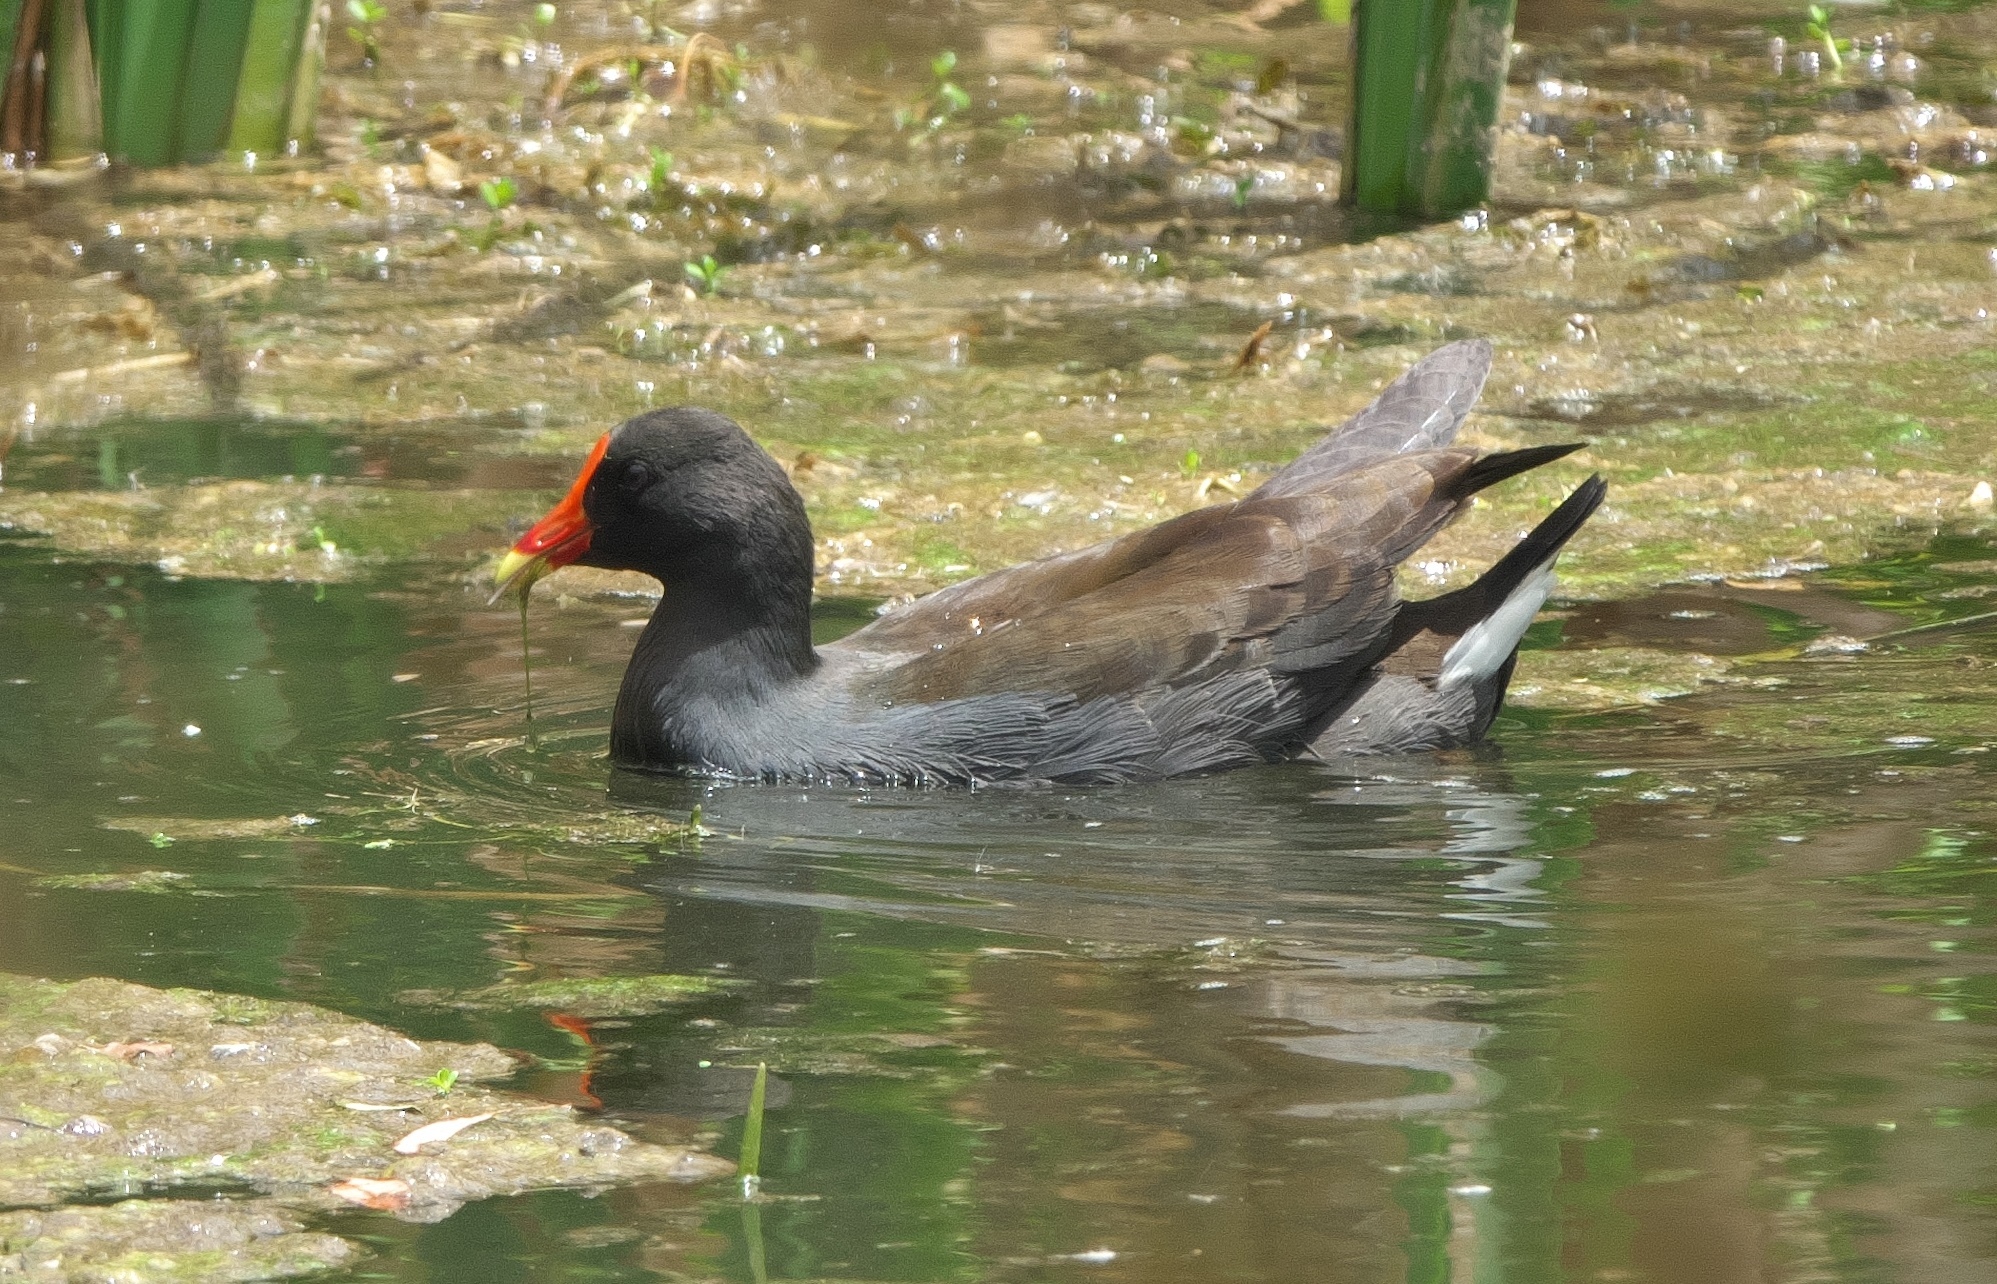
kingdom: Animalia
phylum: Chordata
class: Aves
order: Gruiformes
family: Rallidae
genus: Gallinula
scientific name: Gallinula tenebrosa
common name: Dusky moorhen
